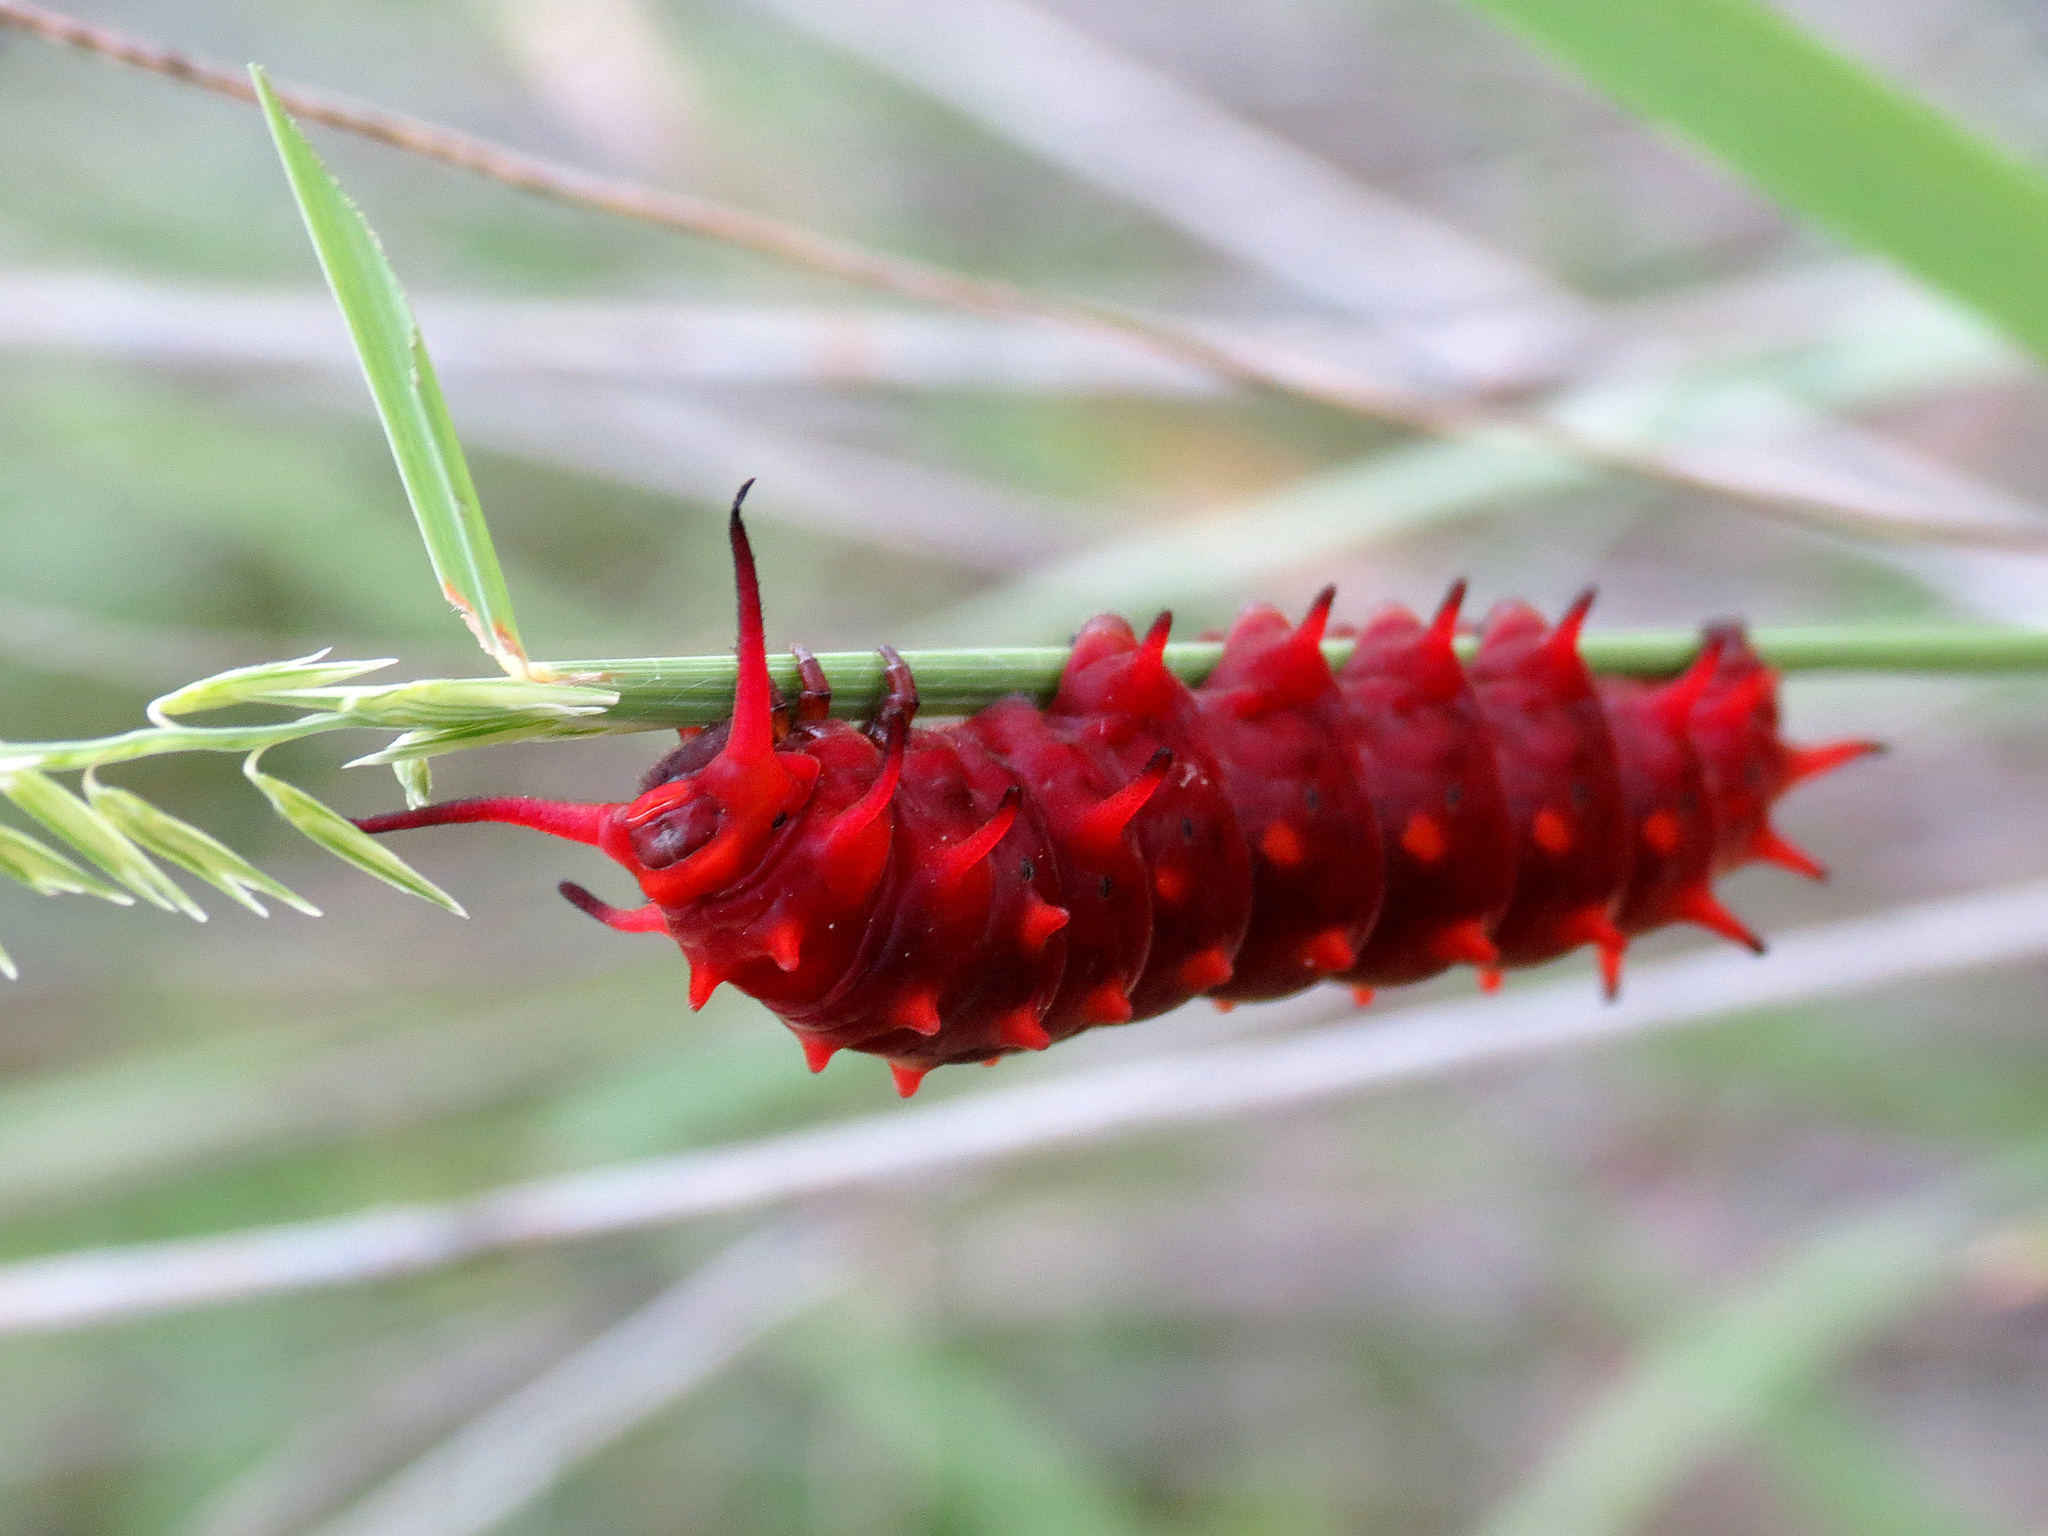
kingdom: Animalia
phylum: Arthropoda
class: Insecta
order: Lepidoptera
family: Papilionidae
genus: Battus
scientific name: Battus philenor
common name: Pipevine swallowtail
